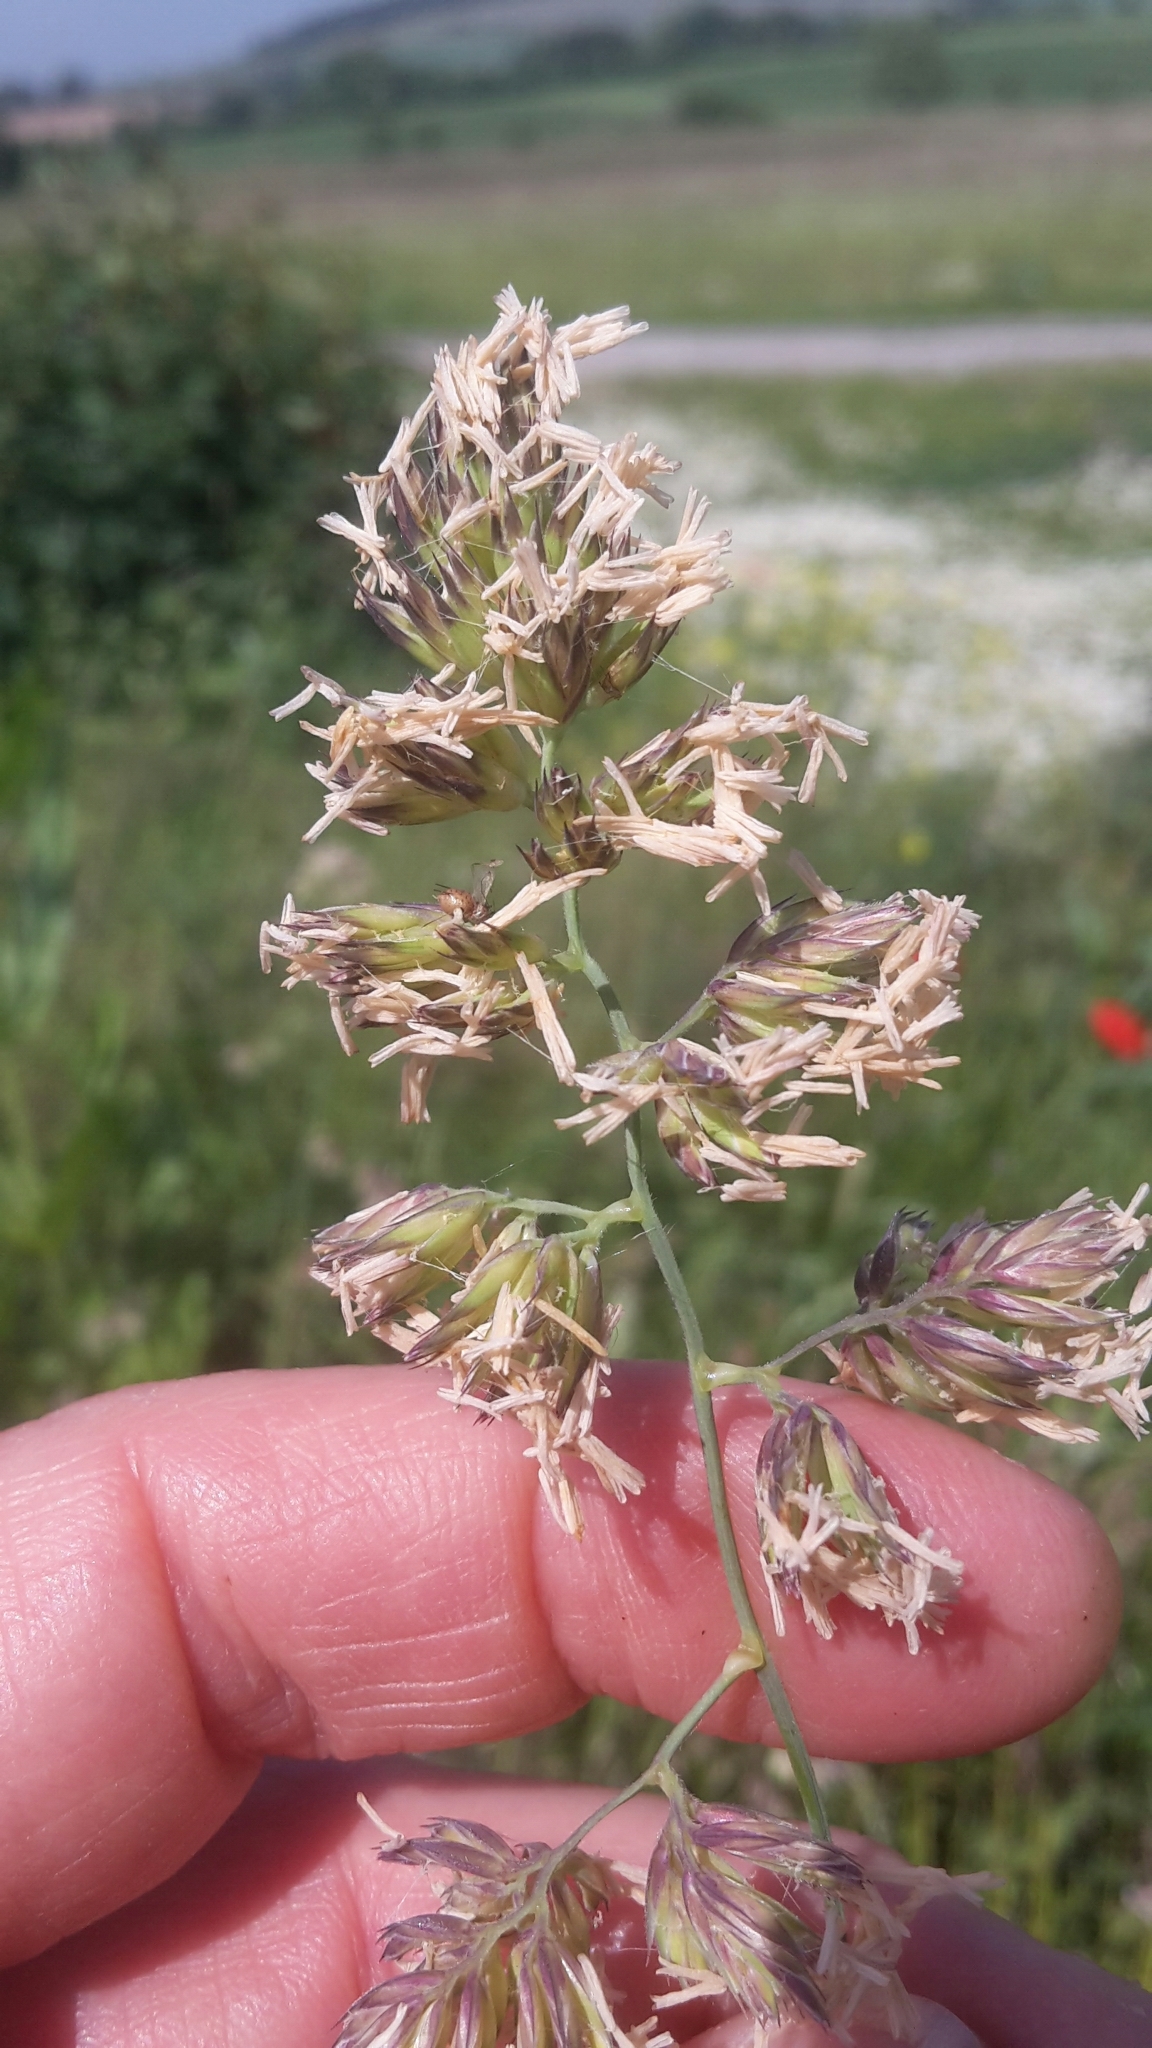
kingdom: Plantae
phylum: Tracheophyta
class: Liliopsida
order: Poales
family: Poaceae
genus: Dactylis
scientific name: Dactylis glomerata
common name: Orchardgrass
